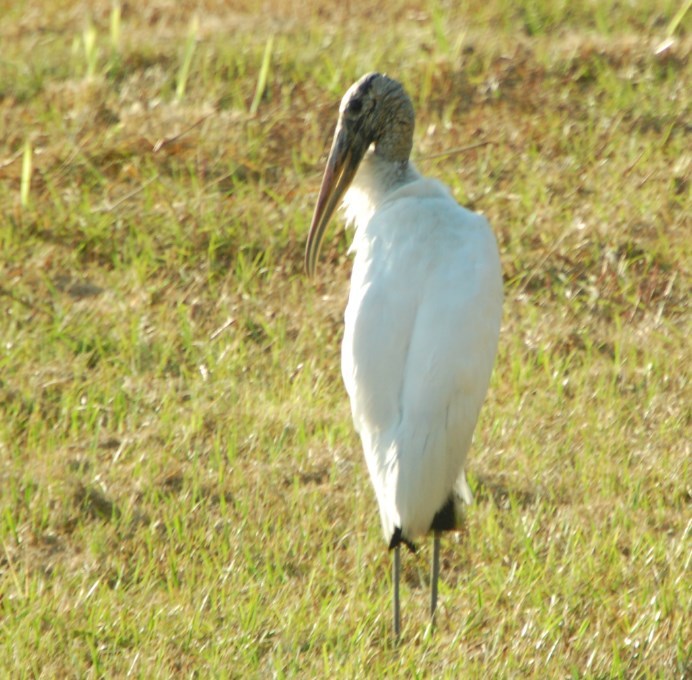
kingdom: Animalia
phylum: Chordata
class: Aves
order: Ciconiiformes
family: Ciconiidae
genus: Mycteria
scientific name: Mycteria americana
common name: Wood stork
